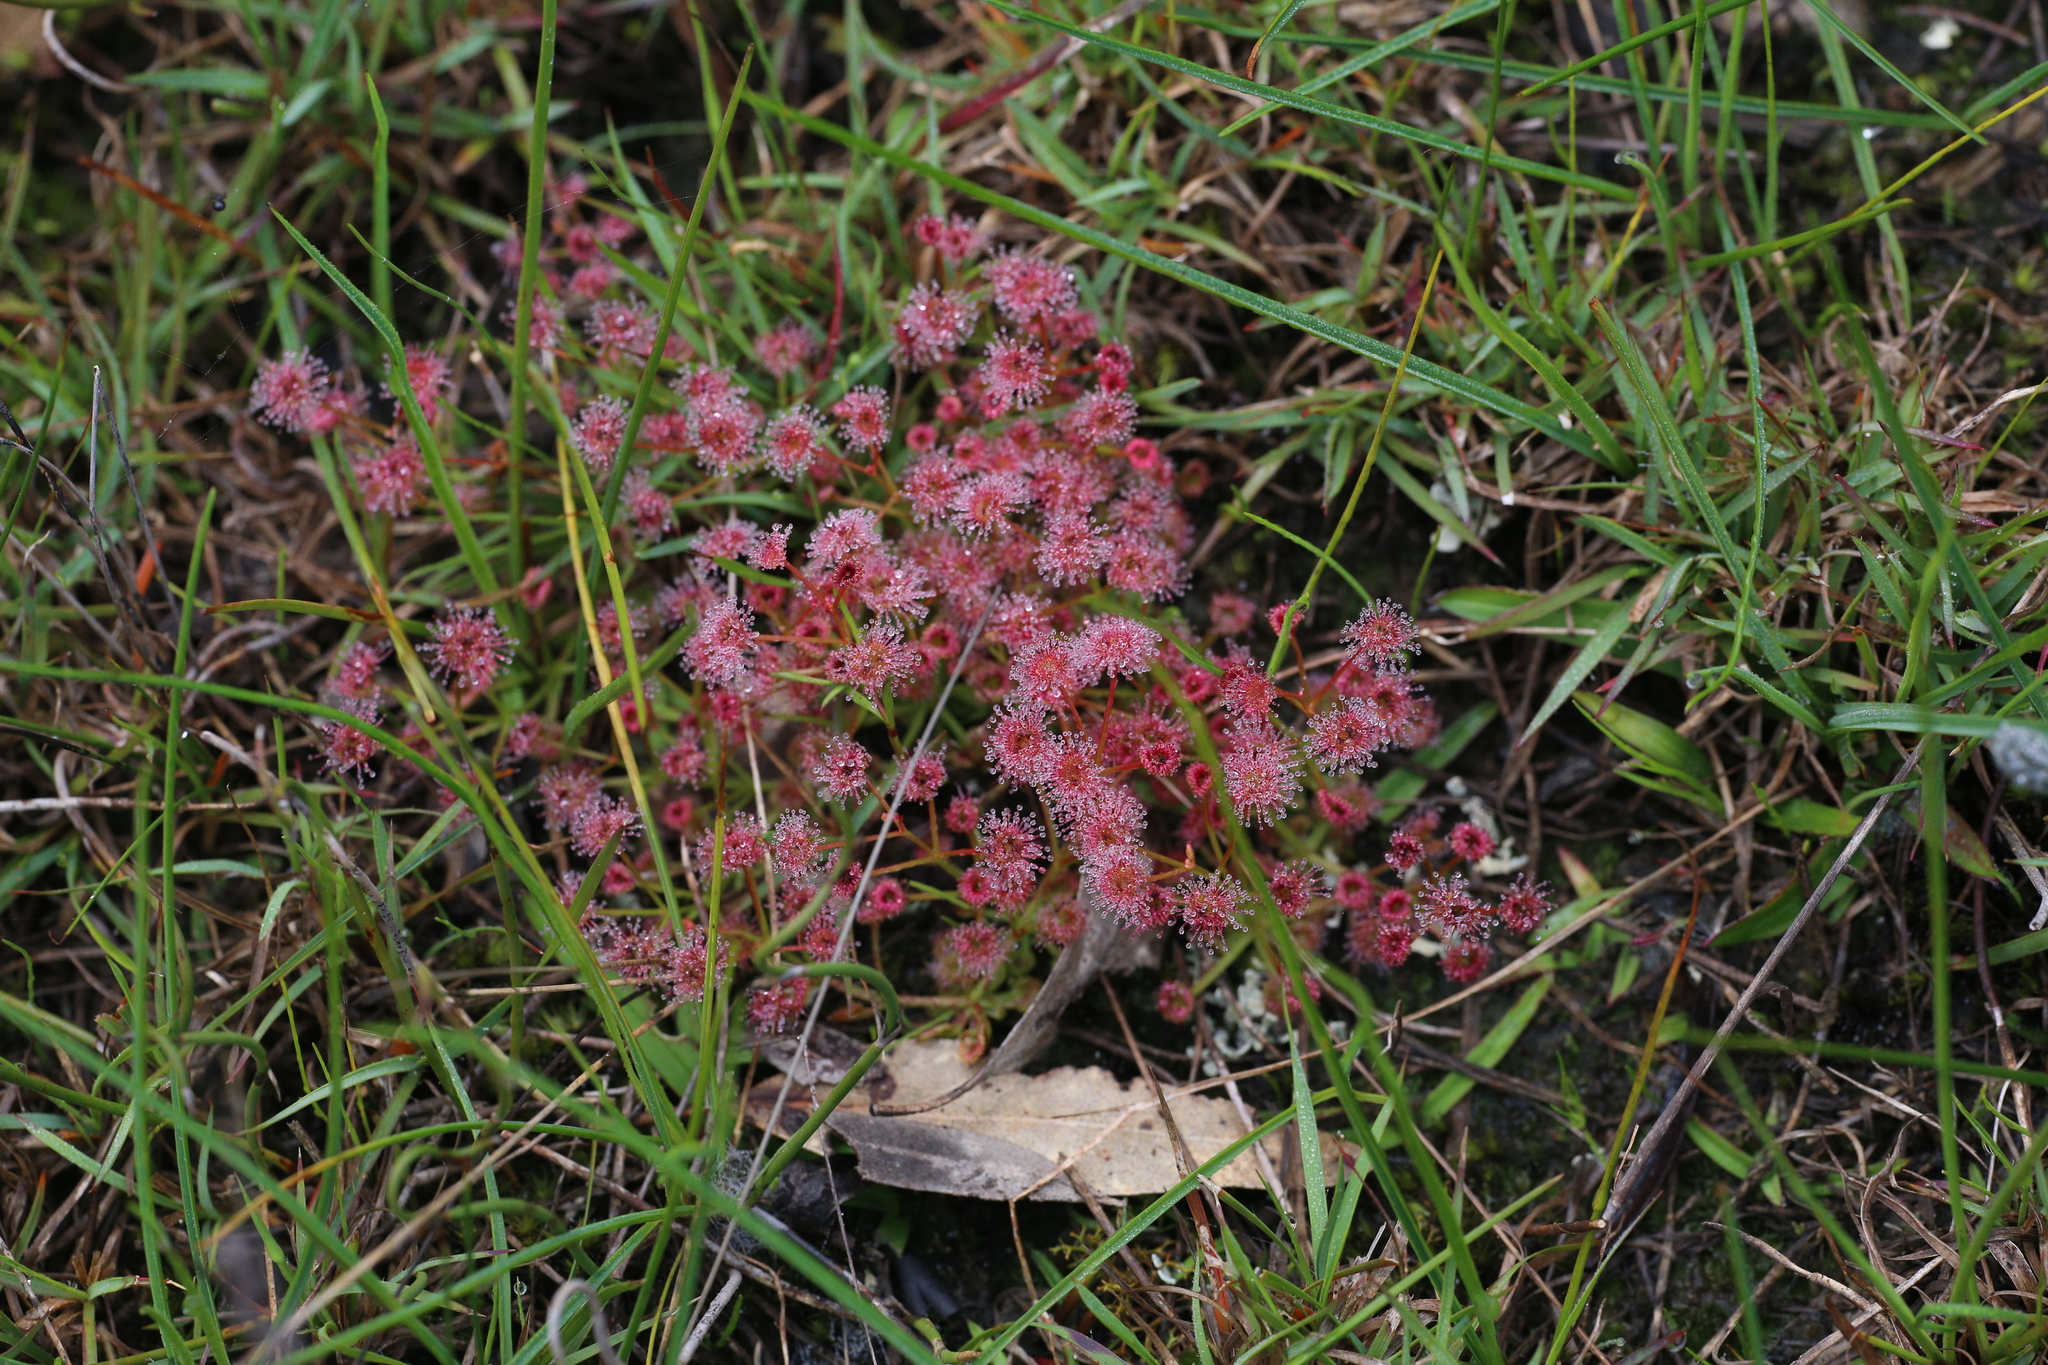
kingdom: Plantae
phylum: Tracheophyta
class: Magnoliopsida
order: Caryophyllales
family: Droseraceae
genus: Drosera
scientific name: Drosera stolonifera
